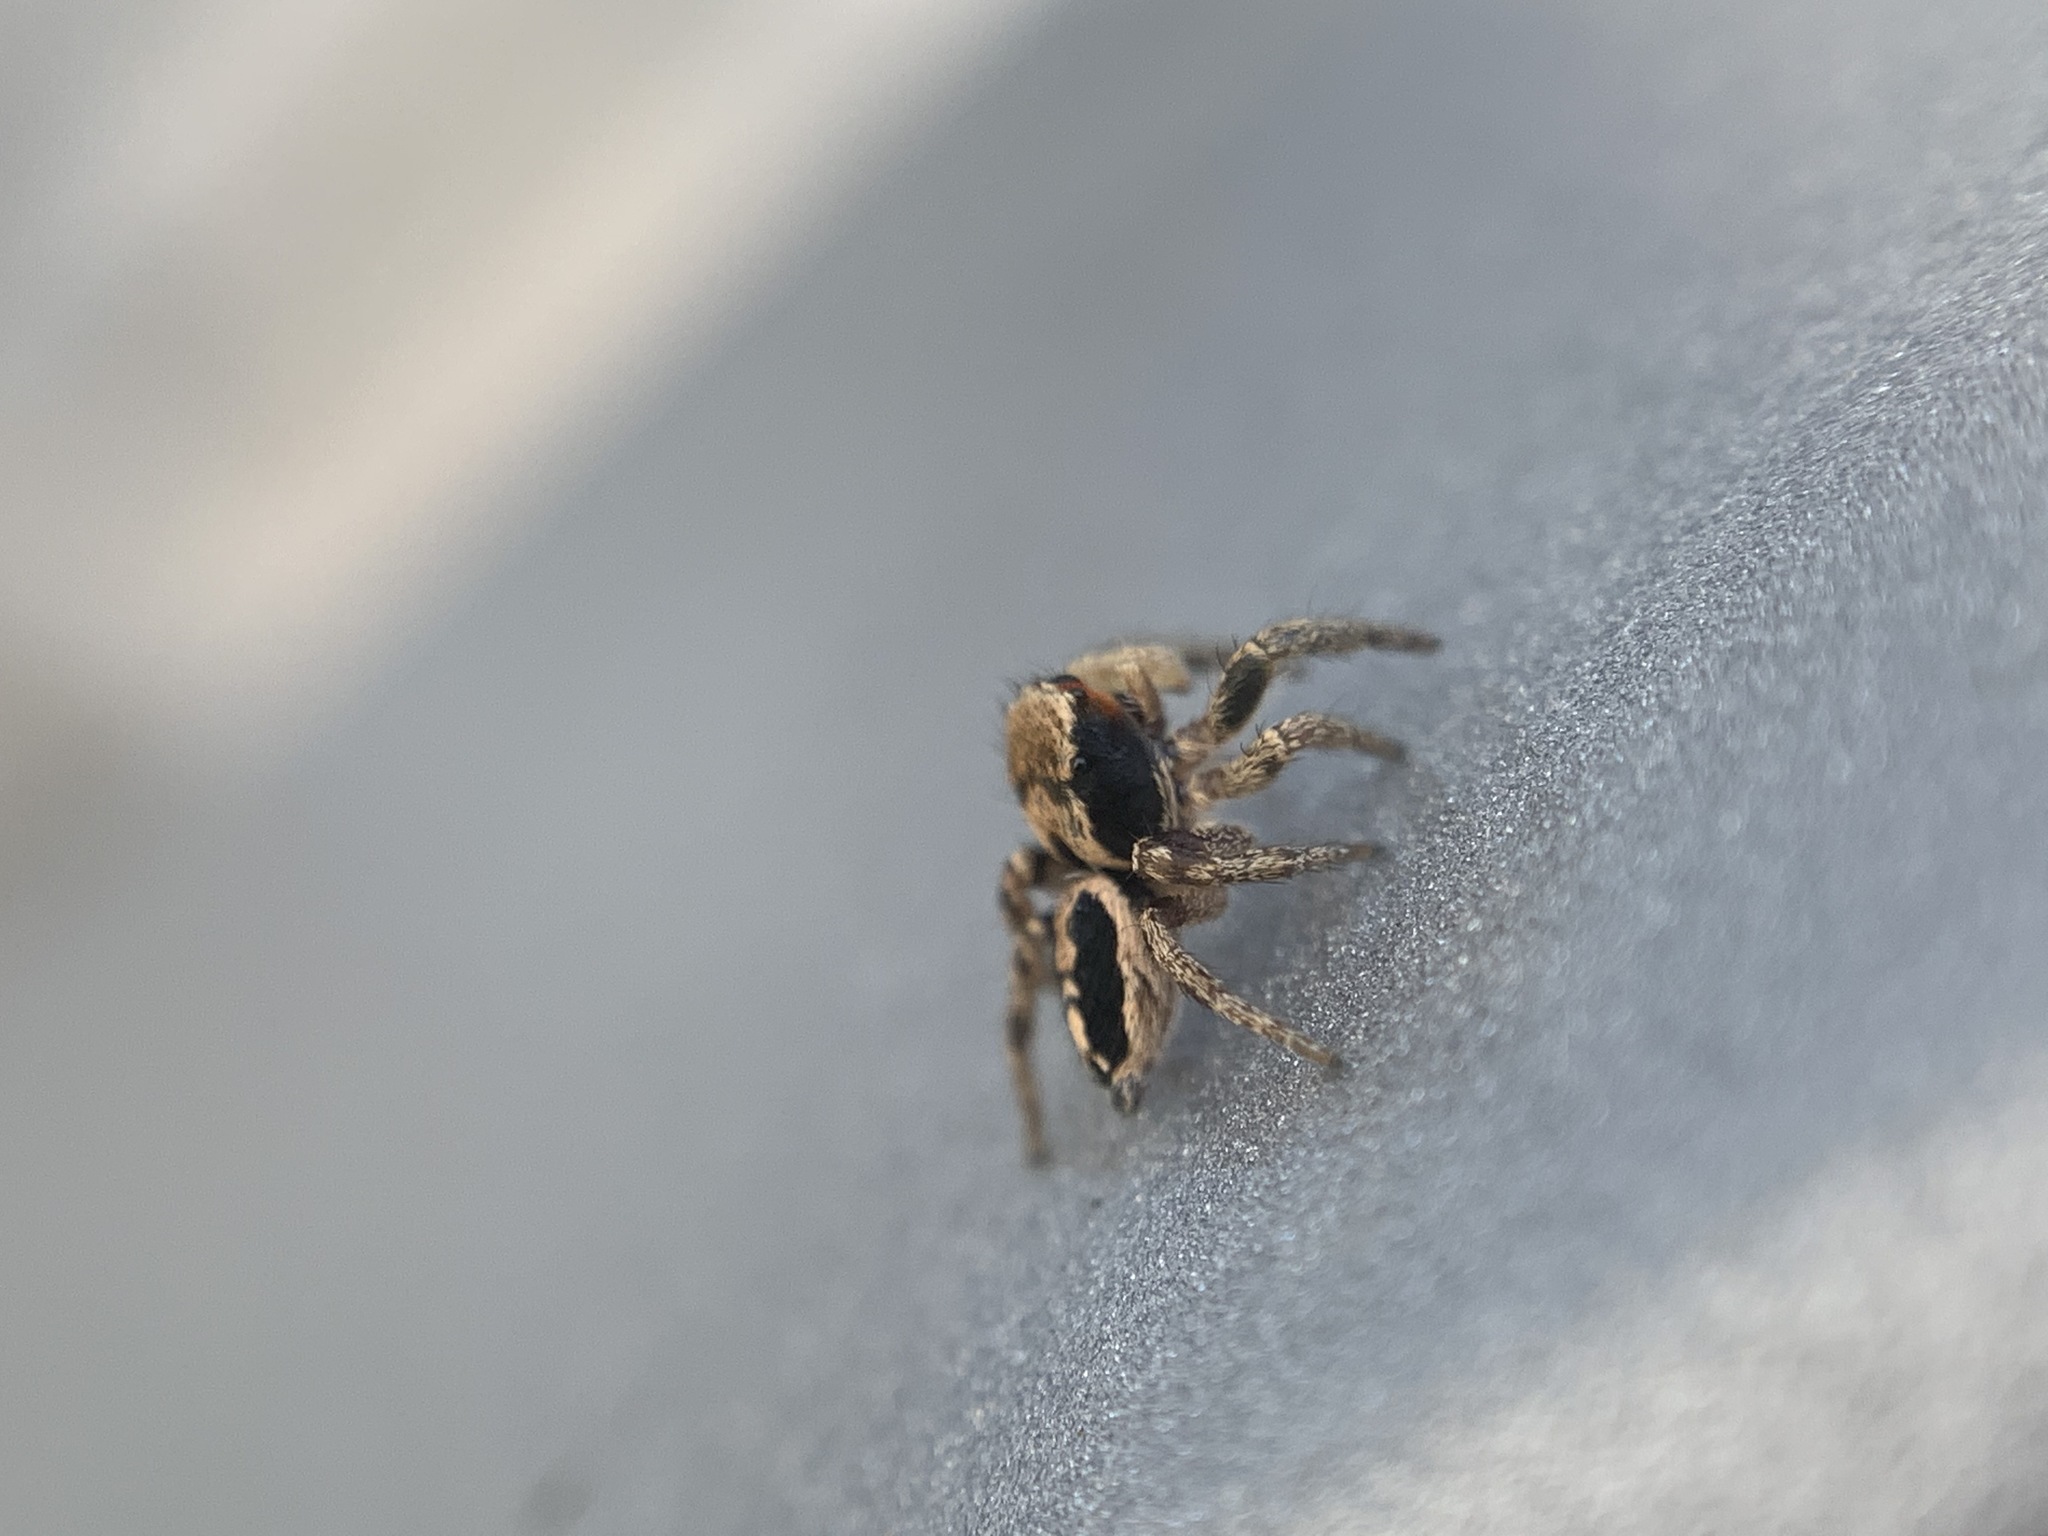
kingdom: Animalia
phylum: Arthropoda
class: Arachnida
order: Araneae
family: Salticidae
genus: Habronattus
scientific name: Habronattus pyrrithrix
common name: Jumping spider
